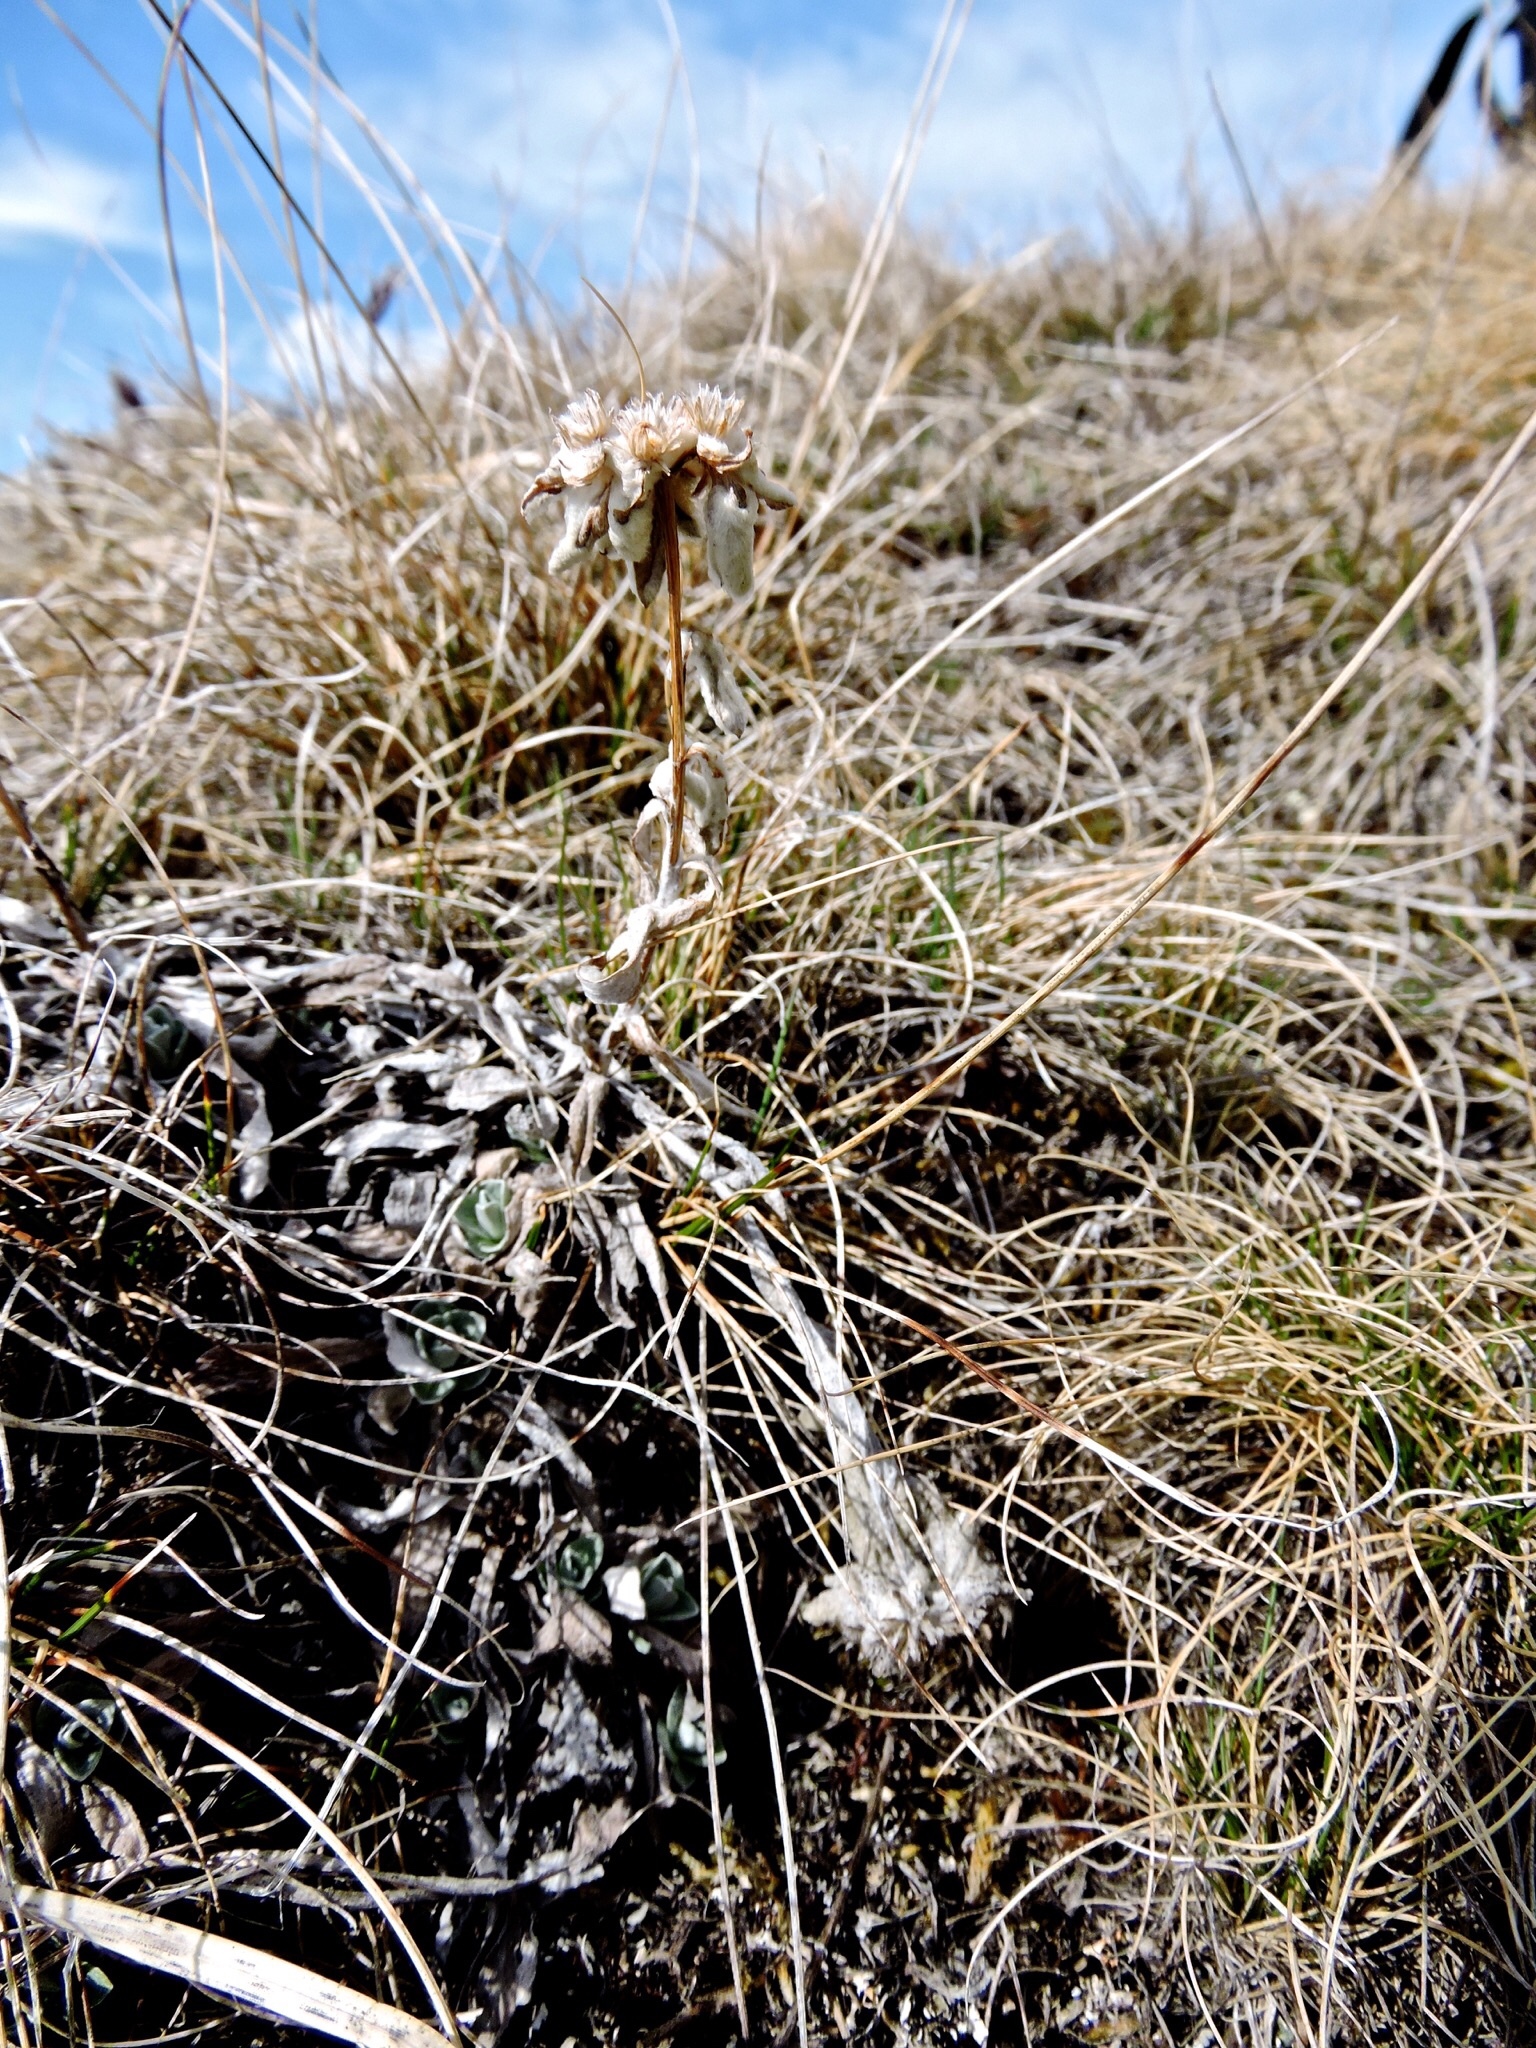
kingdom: Plantae
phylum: Tracheophyta
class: Magnoliopsida
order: Asterales
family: Asteraceae
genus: Leontopodium
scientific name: Leontopodium nivale
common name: Edelweiss
